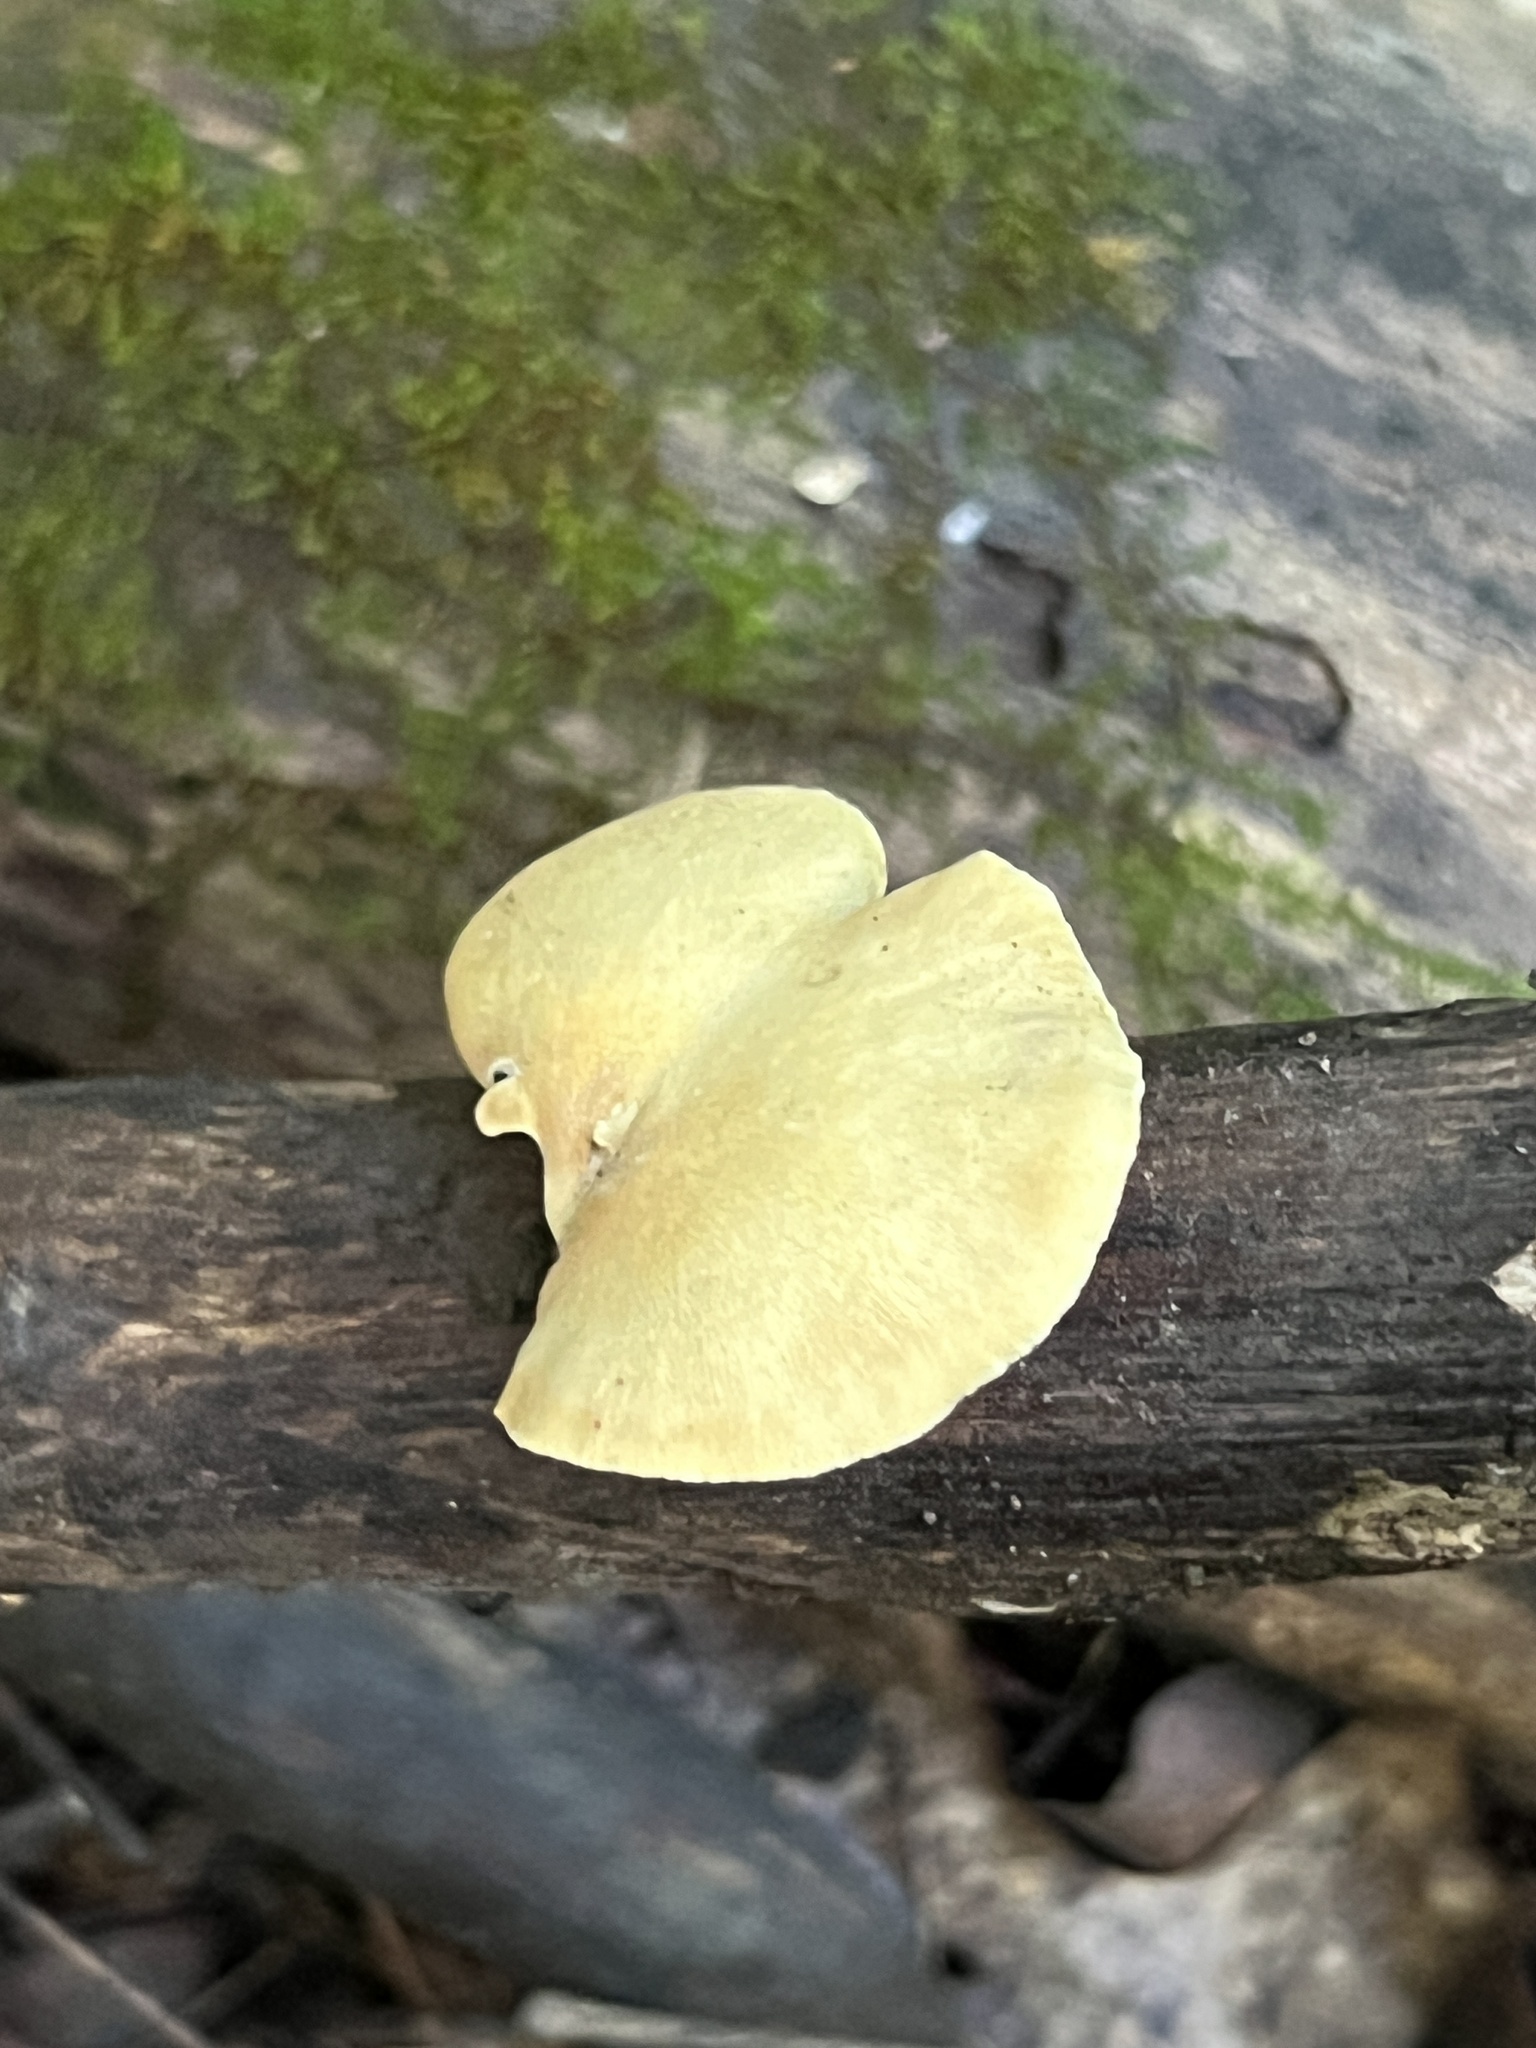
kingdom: Fungi
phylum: Basidiomycota
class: Agaricomycetes
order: Polyporales
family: Polyporaceae
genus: Cerioporus
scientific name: Cerioporus varius
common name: Elegant polypore
